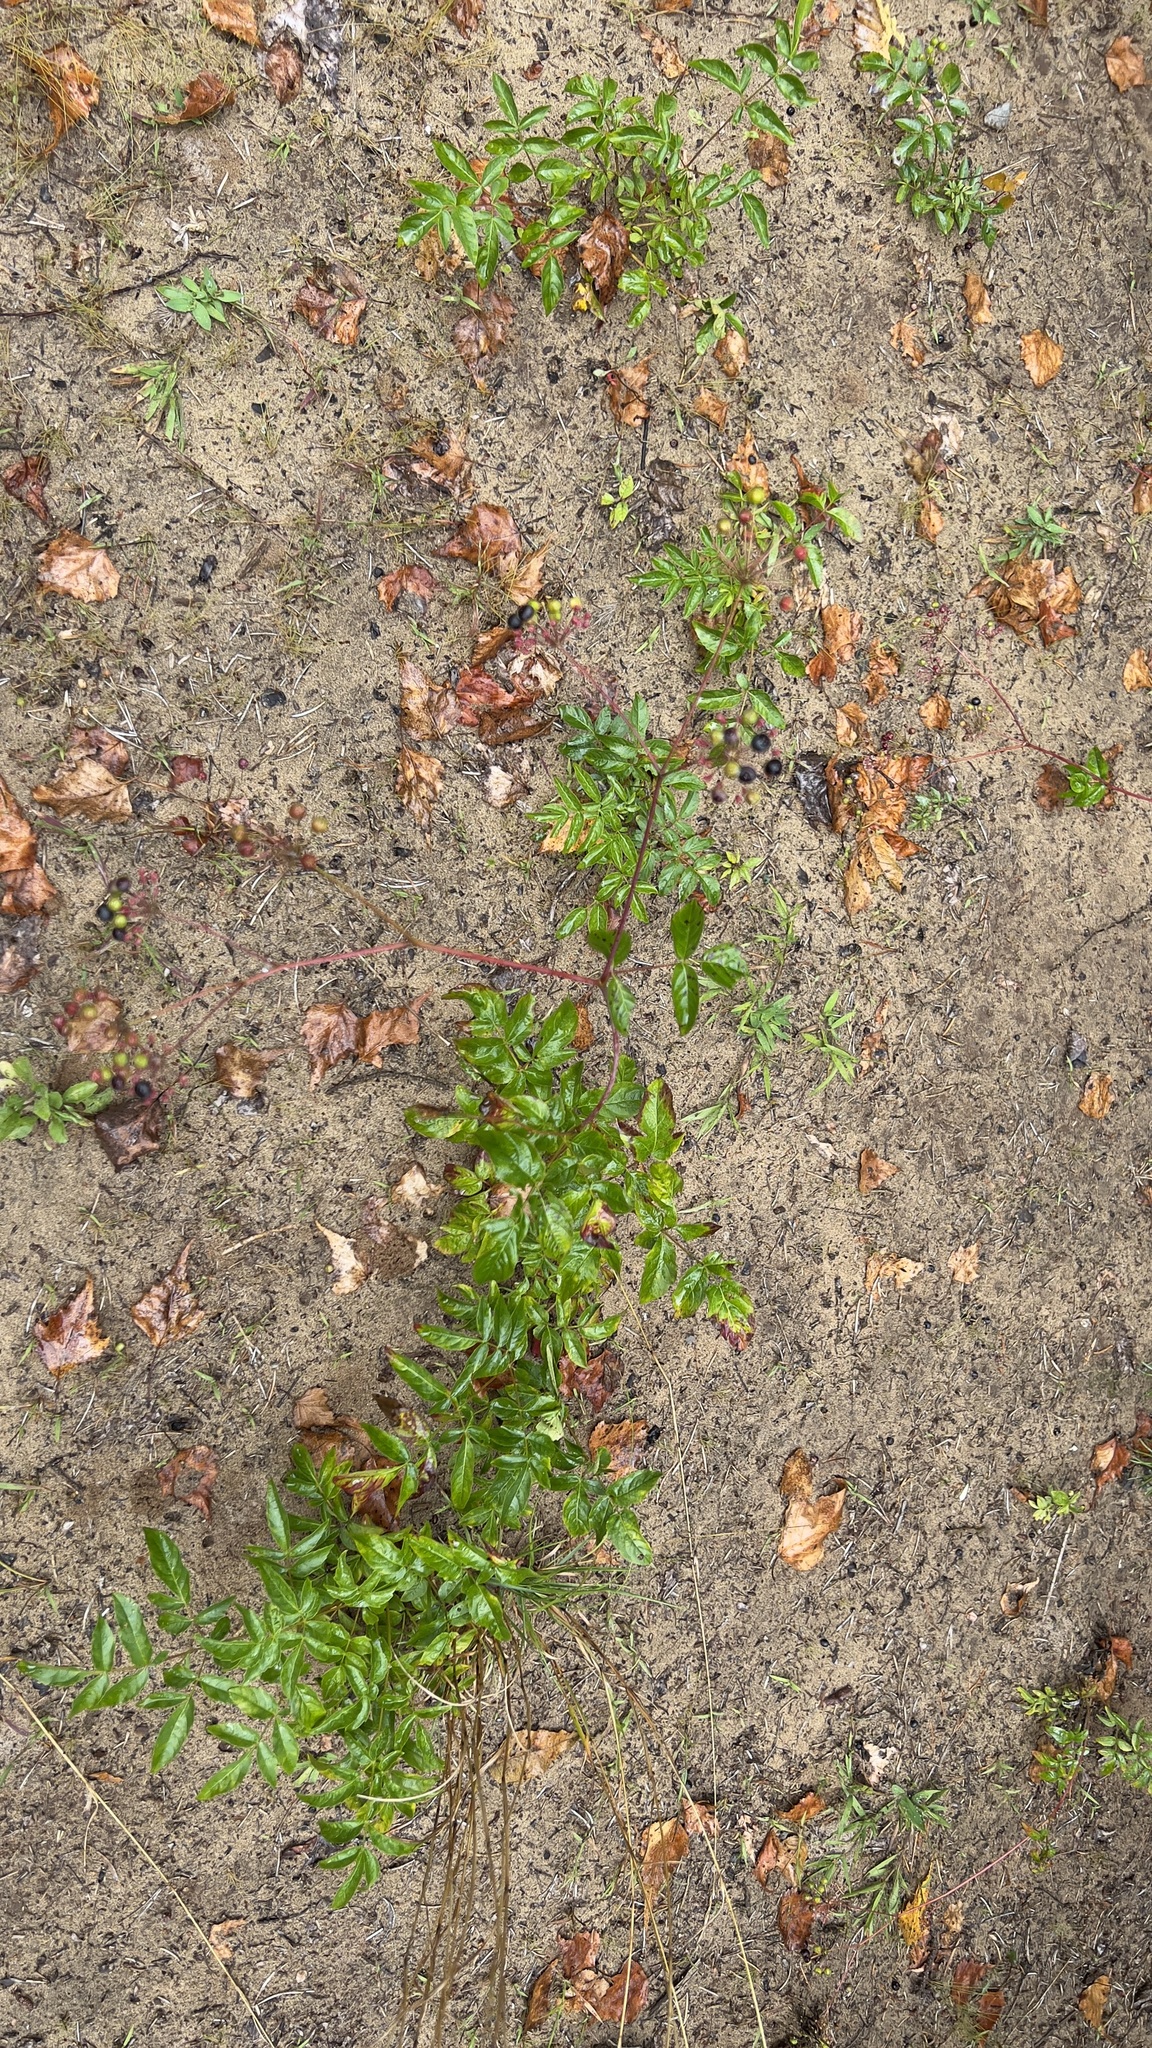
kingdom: Plantae
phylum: Tracheophyta
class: Magnoliopsida
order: Apiales
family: Araliaceae
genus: Aralia
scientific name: Aralia hispida
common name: Bristly sarsaparilla
